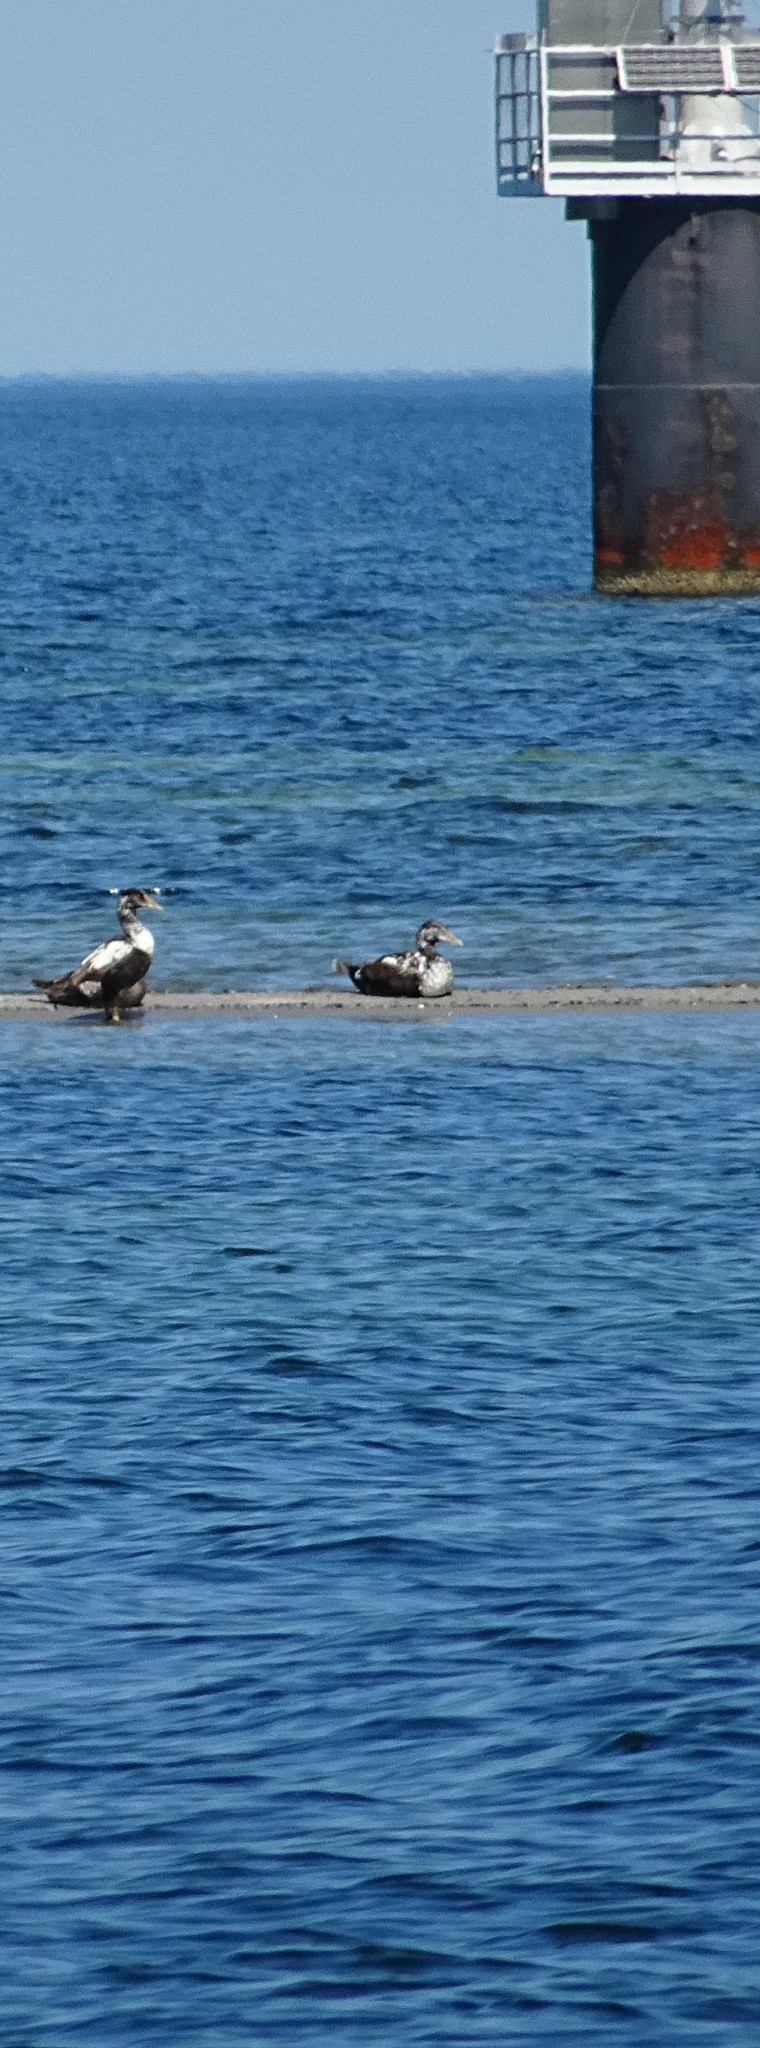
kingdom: Animalia
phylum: Chordata
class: Aves
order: Anseriformes
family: Anatidae
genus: Somateria
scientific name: Somateria mollissima
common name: Common eider
